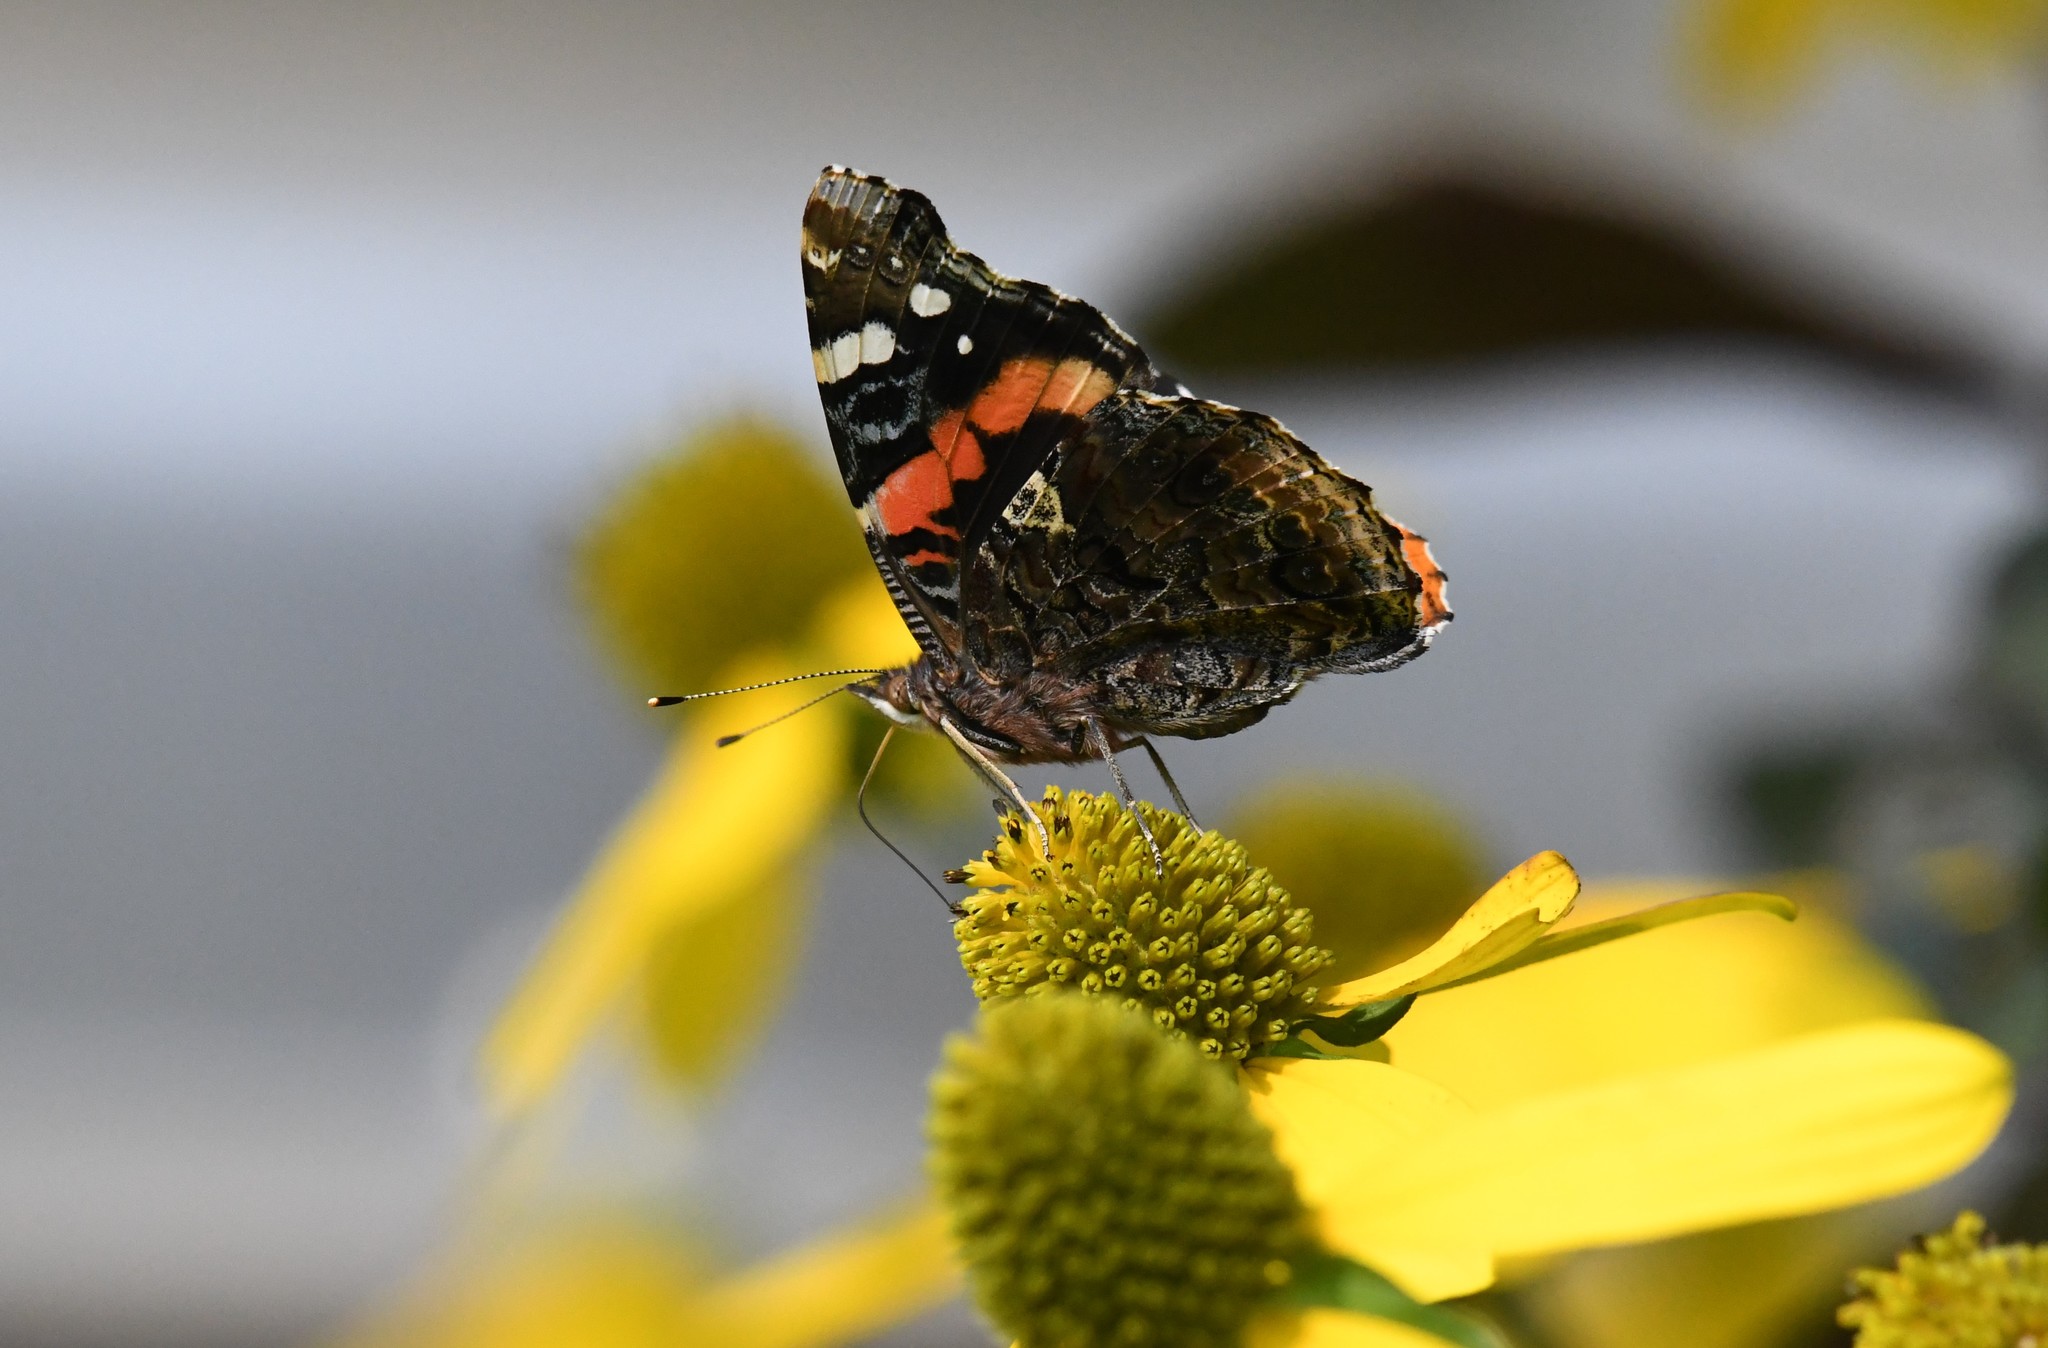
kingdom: Animalia
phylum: Arthropoda
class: Insecta
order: Lepidoptera
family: Nymphalidae
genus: Vanessa
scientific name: Vanessa atalanta
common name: Red admiral
